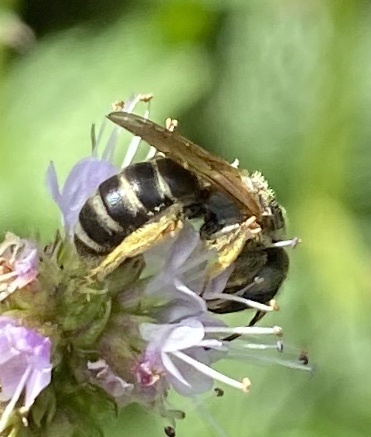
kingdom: Animalia
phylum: Arthropoda
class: Insecta
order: Hymenoptera
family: Halictidae
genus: Halictus
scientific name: Halictus ligatus
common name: Ligated furrow bee
